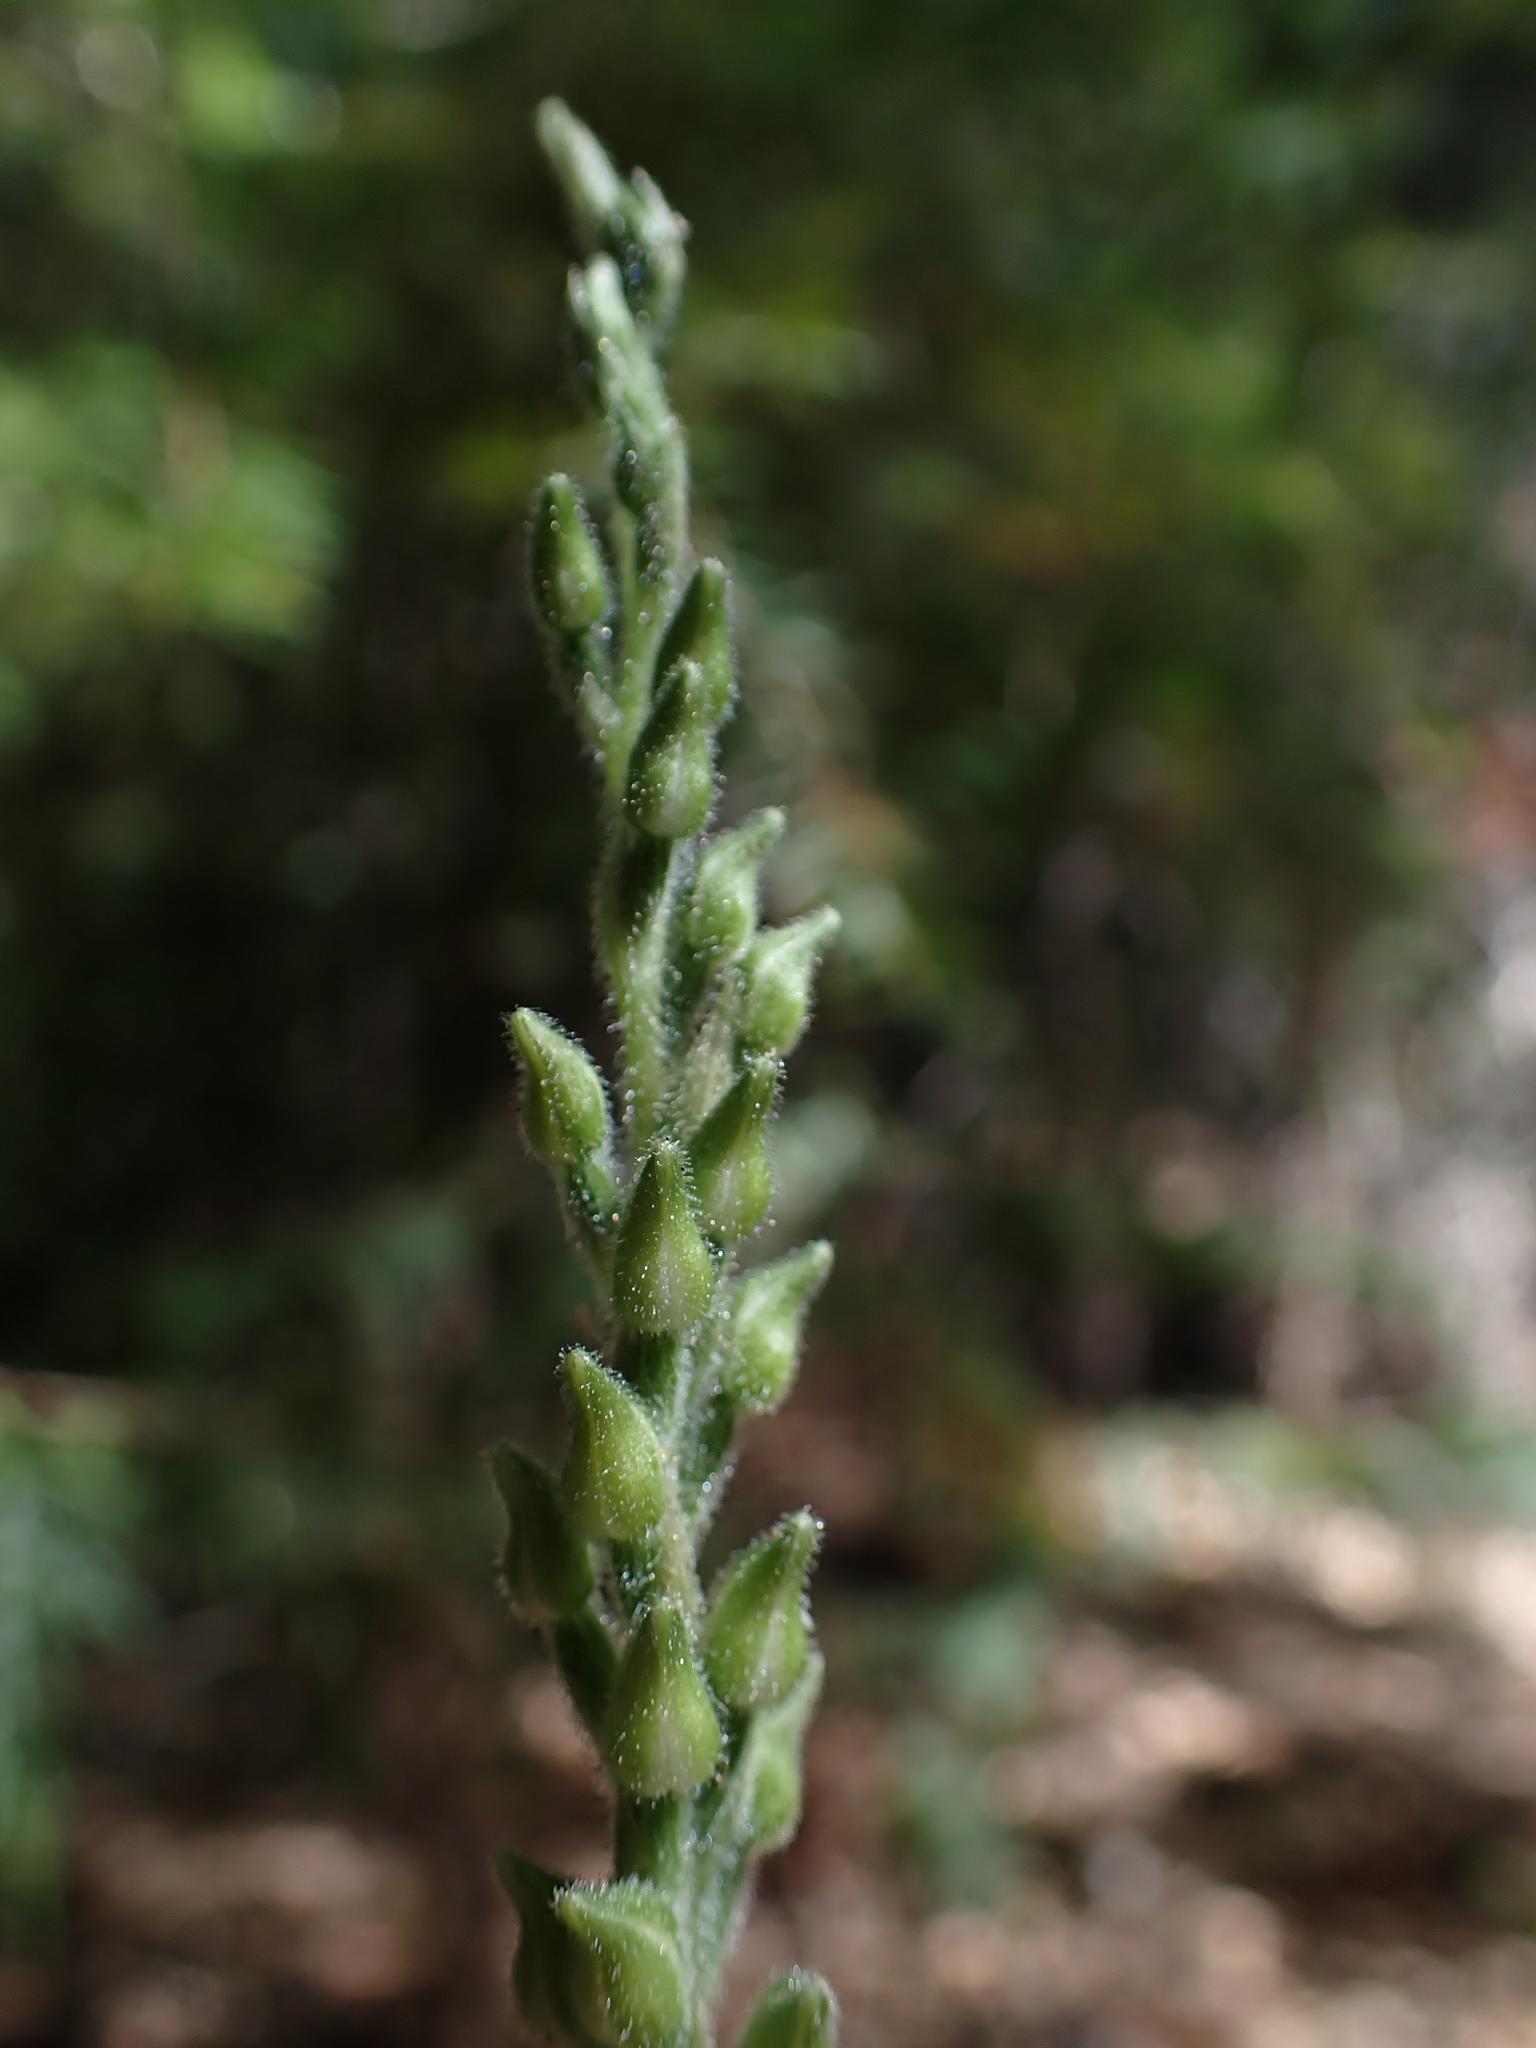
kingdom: Plantae
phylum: Tracheophyta
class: Liliopsida
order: Asparagales
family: Orchidaceae
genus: Goodyera
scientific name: Goodyera oblongifolia
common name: Giant rattlesnake-plantain
